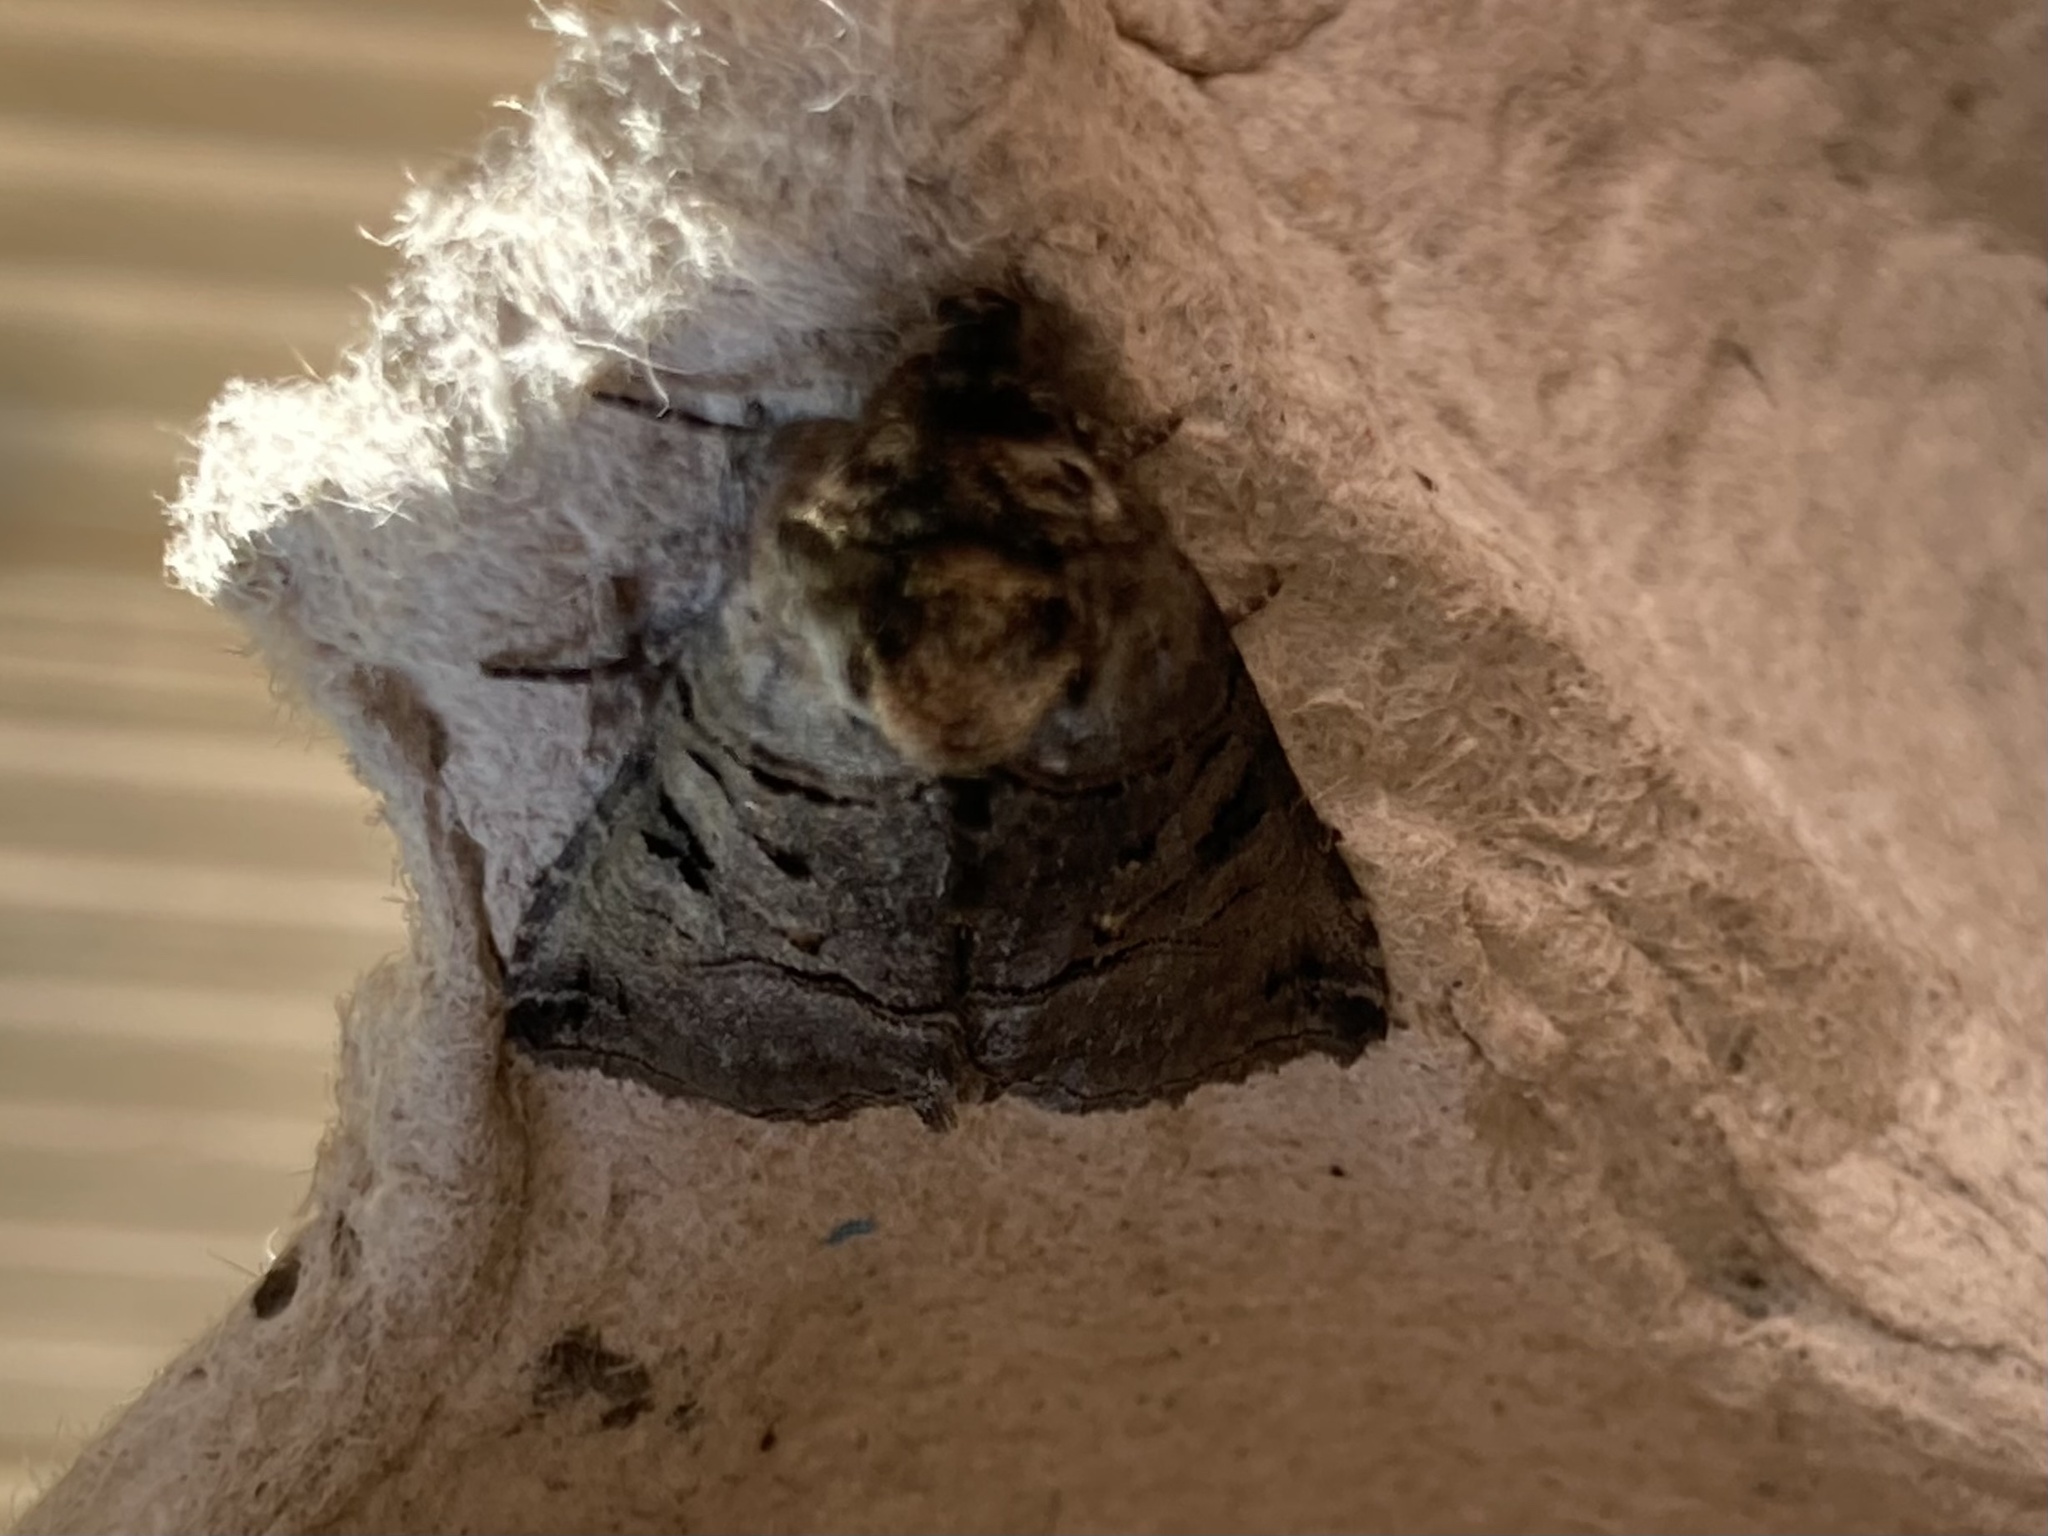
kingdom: Animalia
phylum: Arthropoda
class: Insecta
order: Lepidoptera
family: Noctuidae
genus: Abrostola
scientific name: Abrostola tripartita
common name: Spectacle
